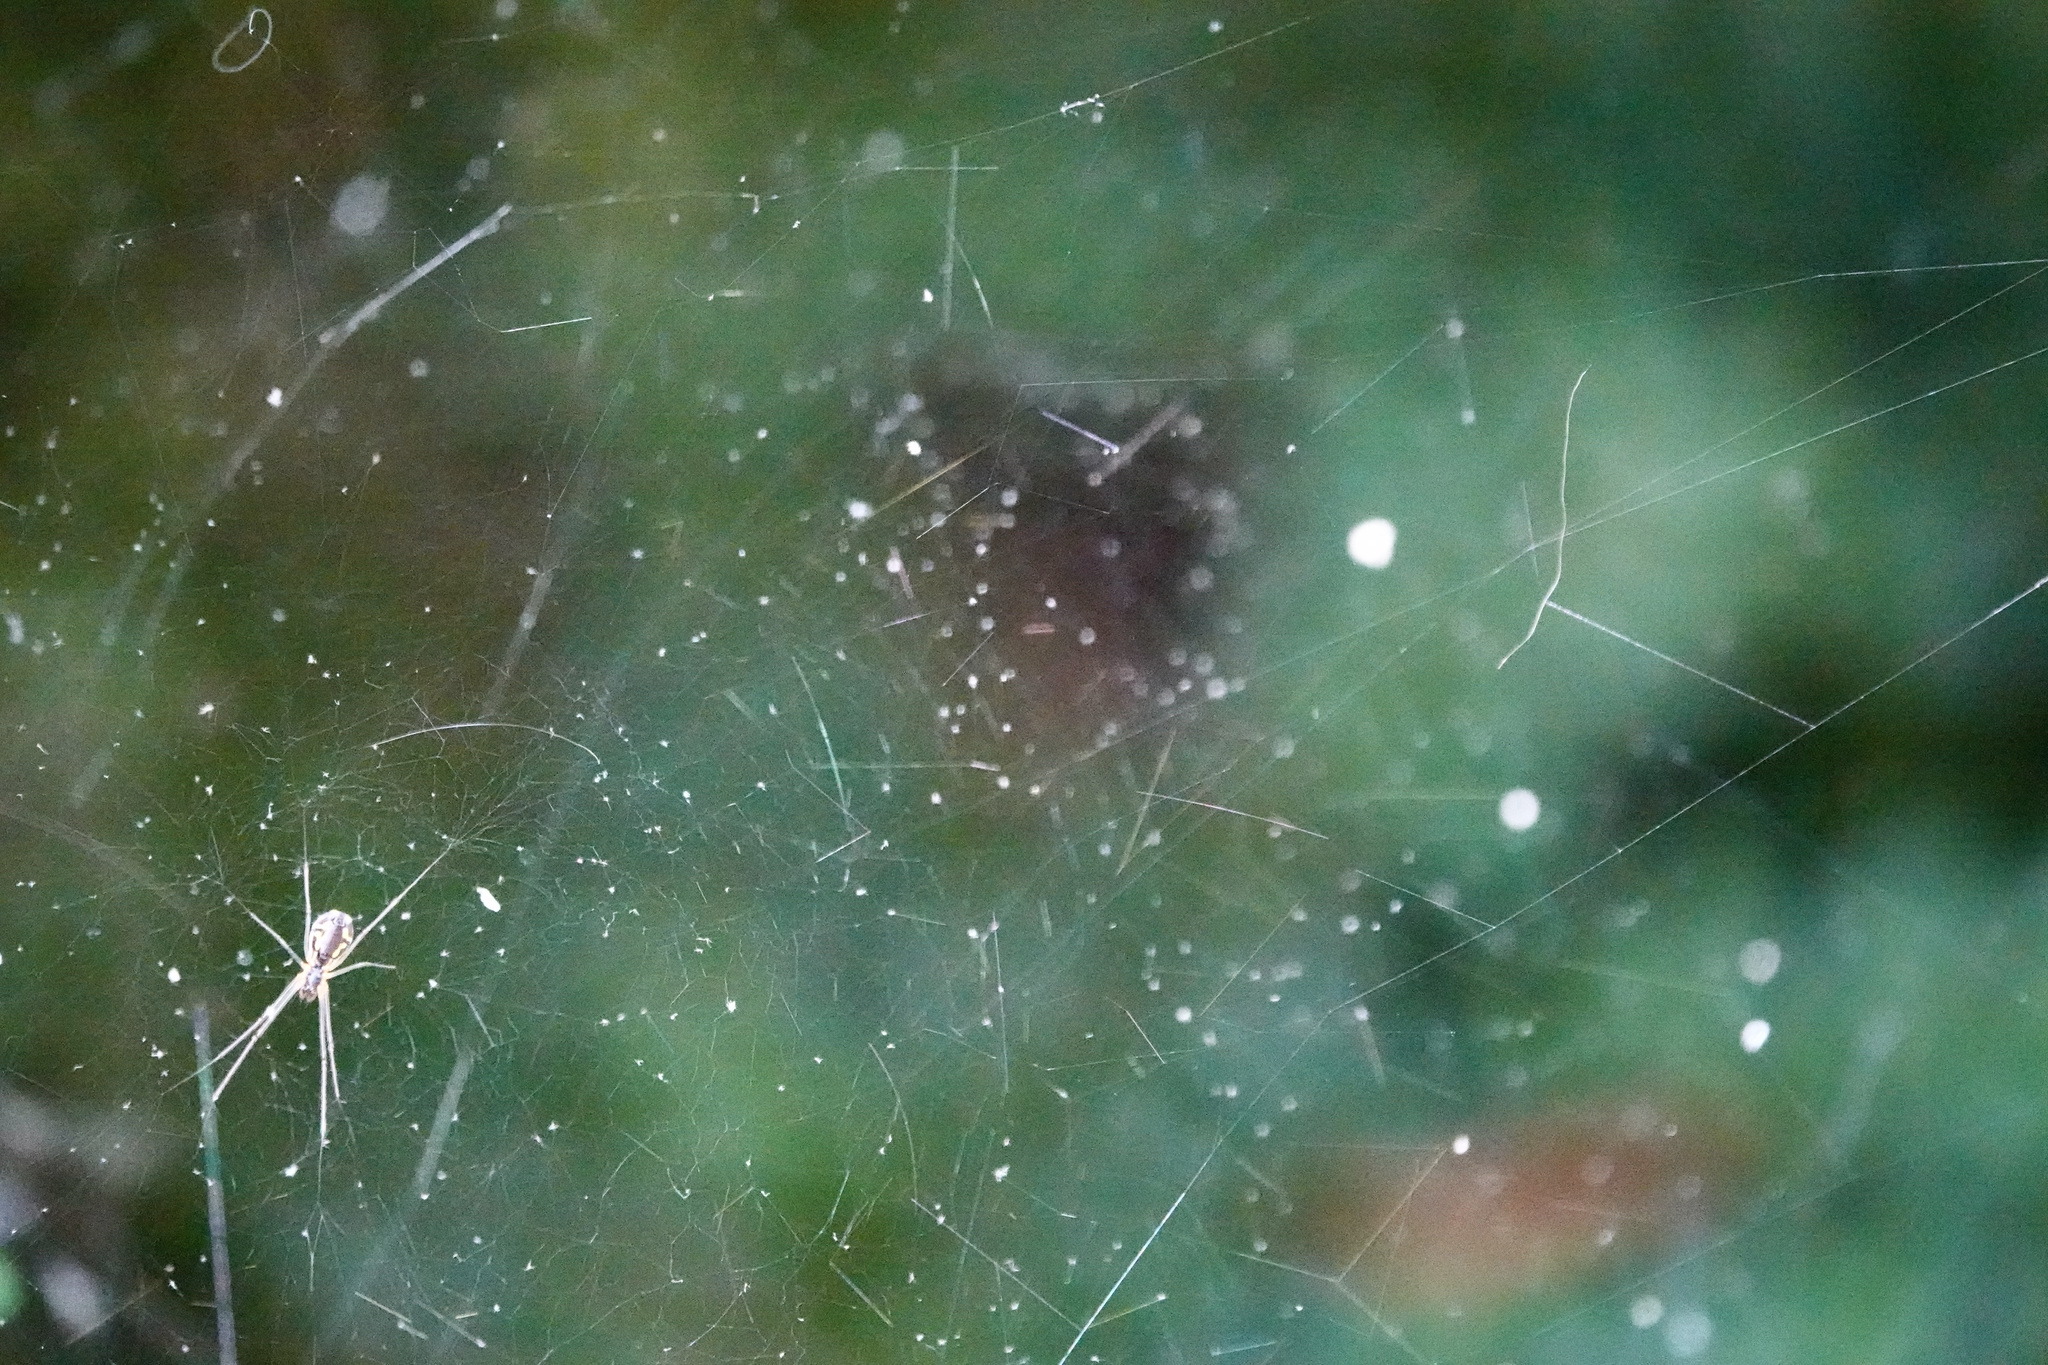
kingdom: Animalia
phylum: Arthropoda
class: Arachnida
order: Araneae
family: Linyphiidae
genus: Neriene
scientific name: Neriene radiata
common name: Filmy dome spider
